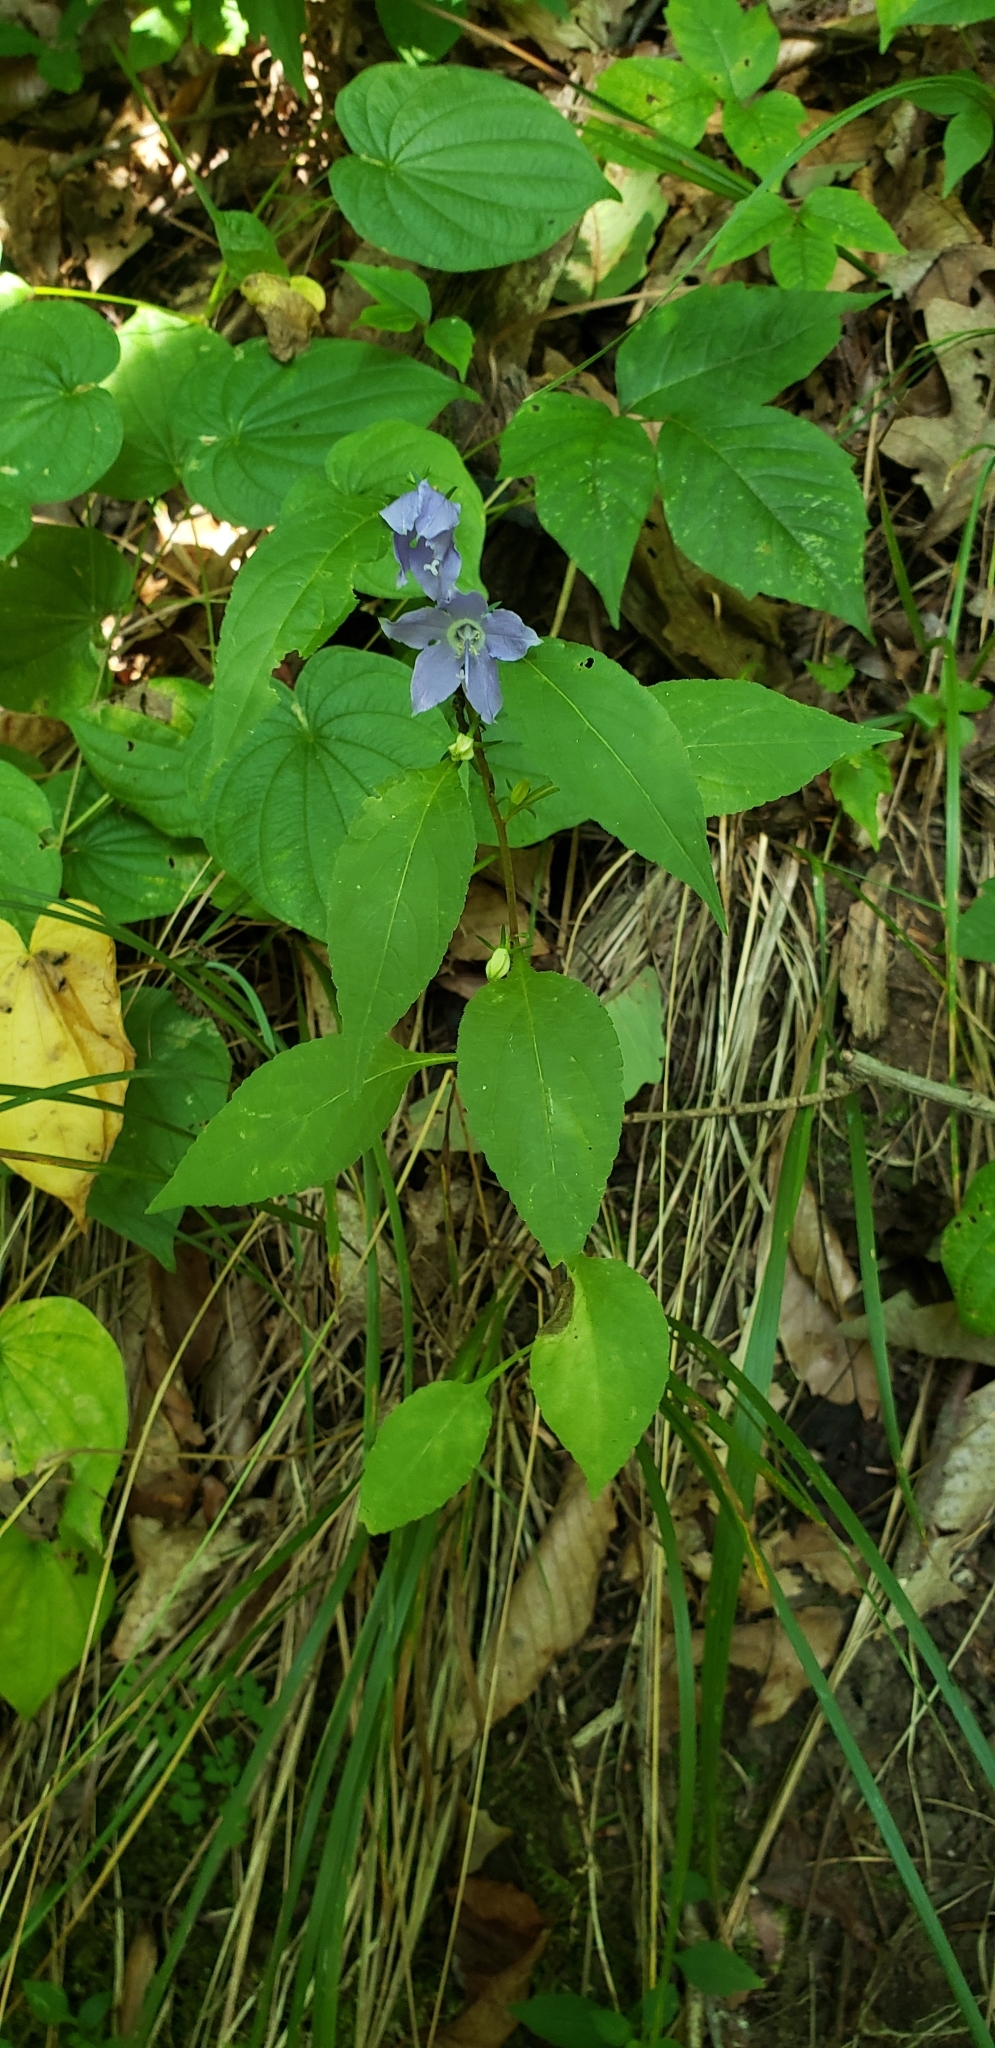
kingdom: Plantae
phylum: Tracheophyta
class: Magnoliopsida
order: Asterales
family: Campanulaceae
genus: Campanulastrum
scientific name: Campanulastrum americanum
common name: American bellflower
